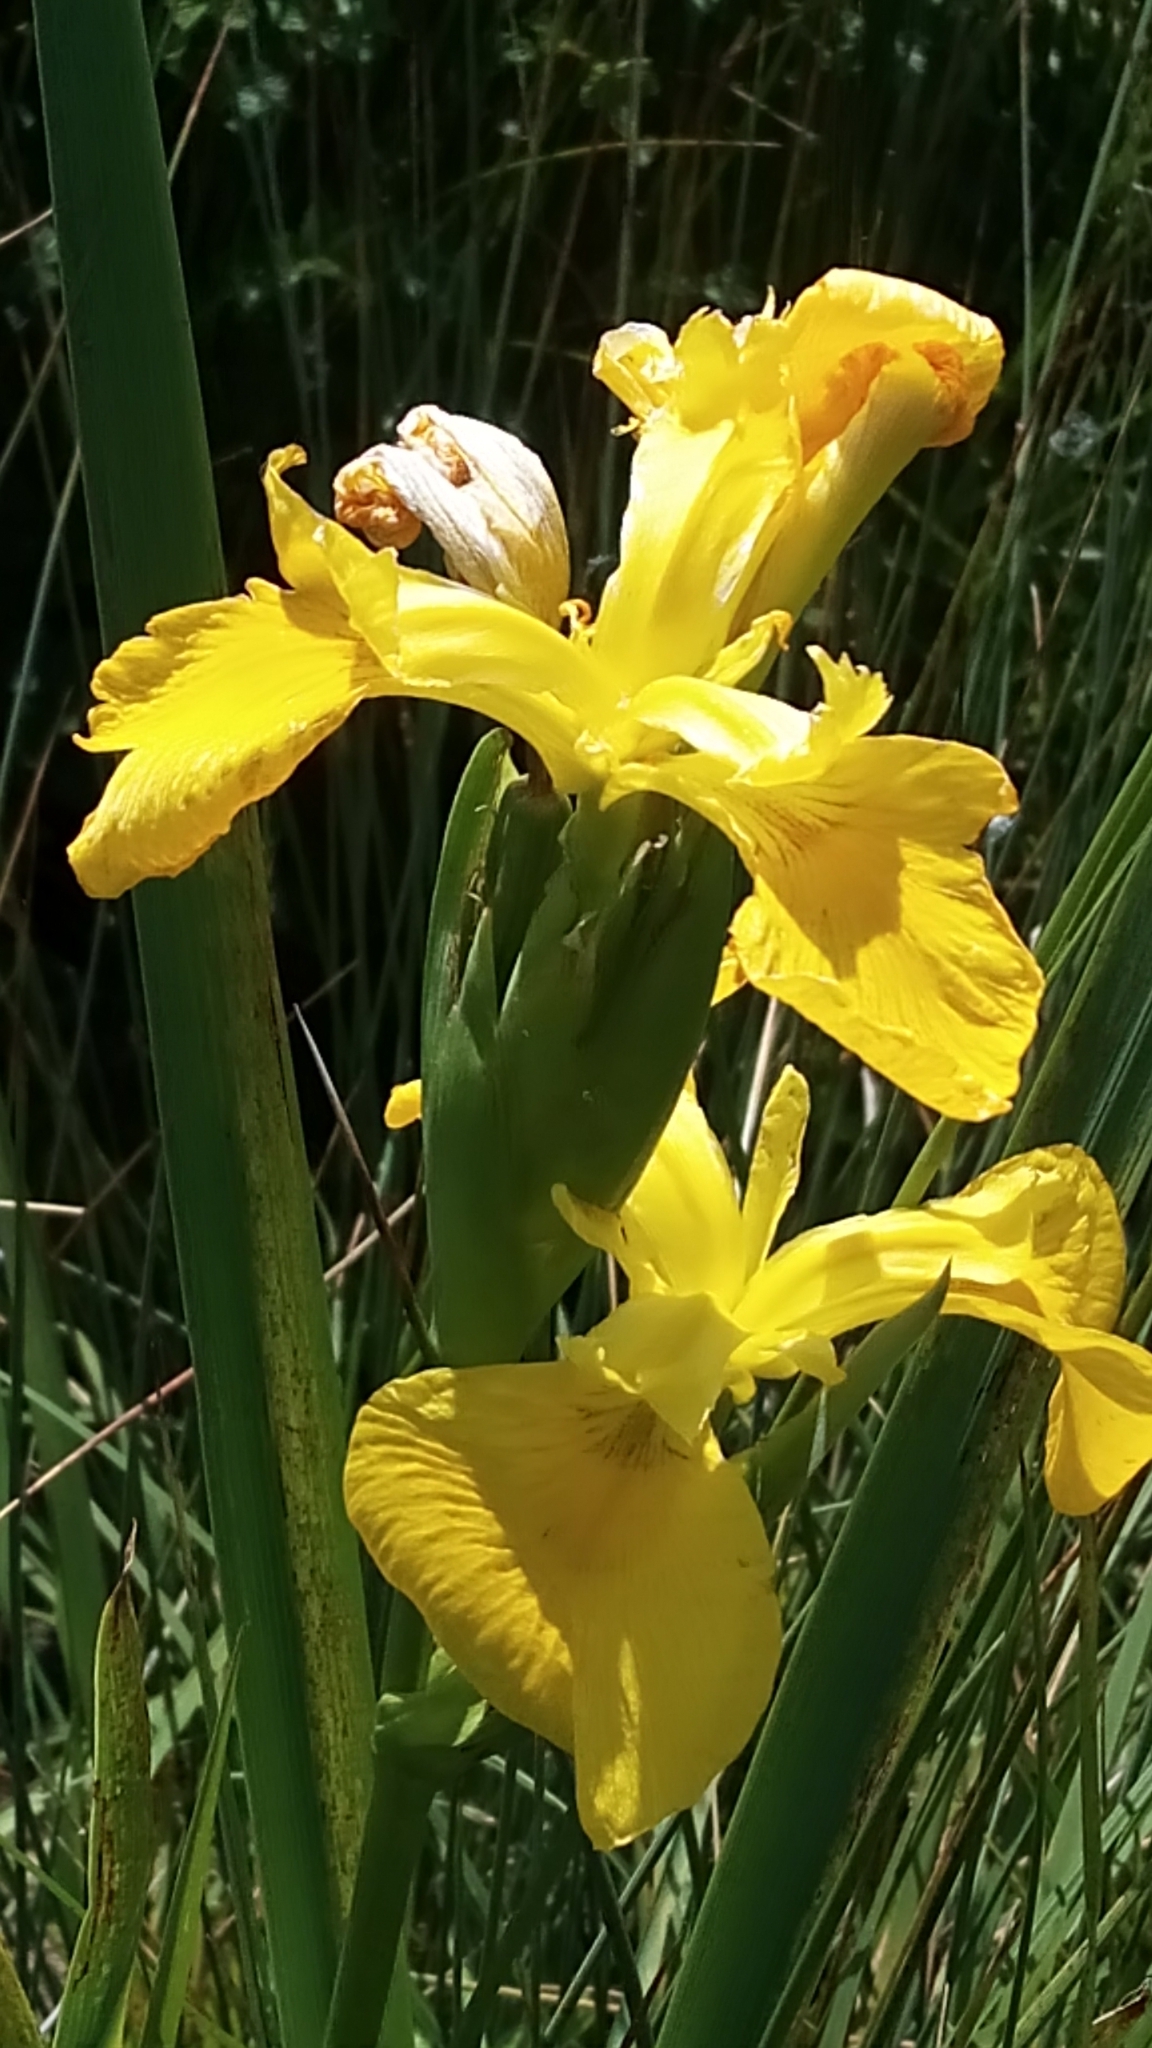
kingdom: Plantae
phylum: Tracheophyta
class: Liliopsida
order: Asparagales
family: Iridaceae
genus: Iris
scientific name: Iris pseudacorus
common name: Yellow flag
